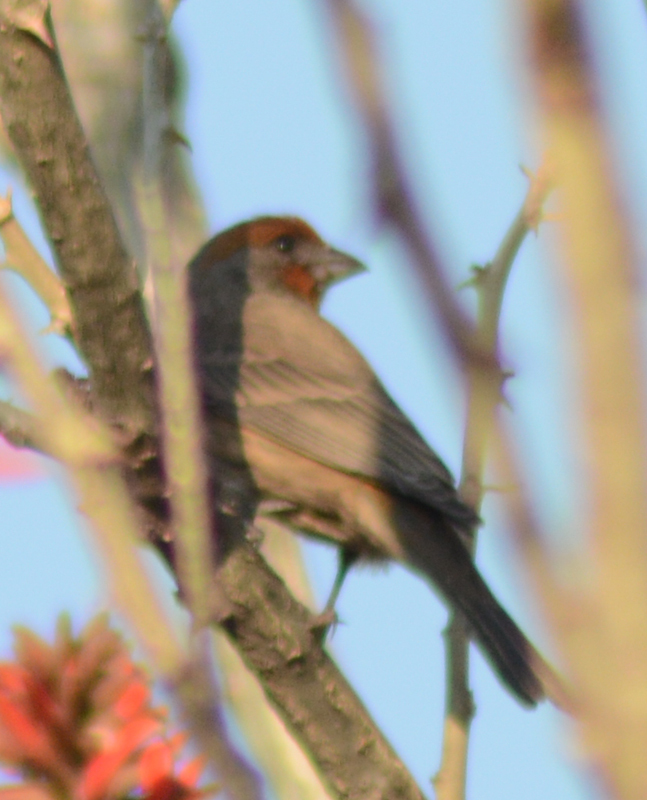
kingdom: Animalia
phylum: Chordata
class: Aves
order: Passeriformes
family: Fringillidae
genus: Haemorhous
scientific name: Haemorhous mexicanus
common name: House finch
